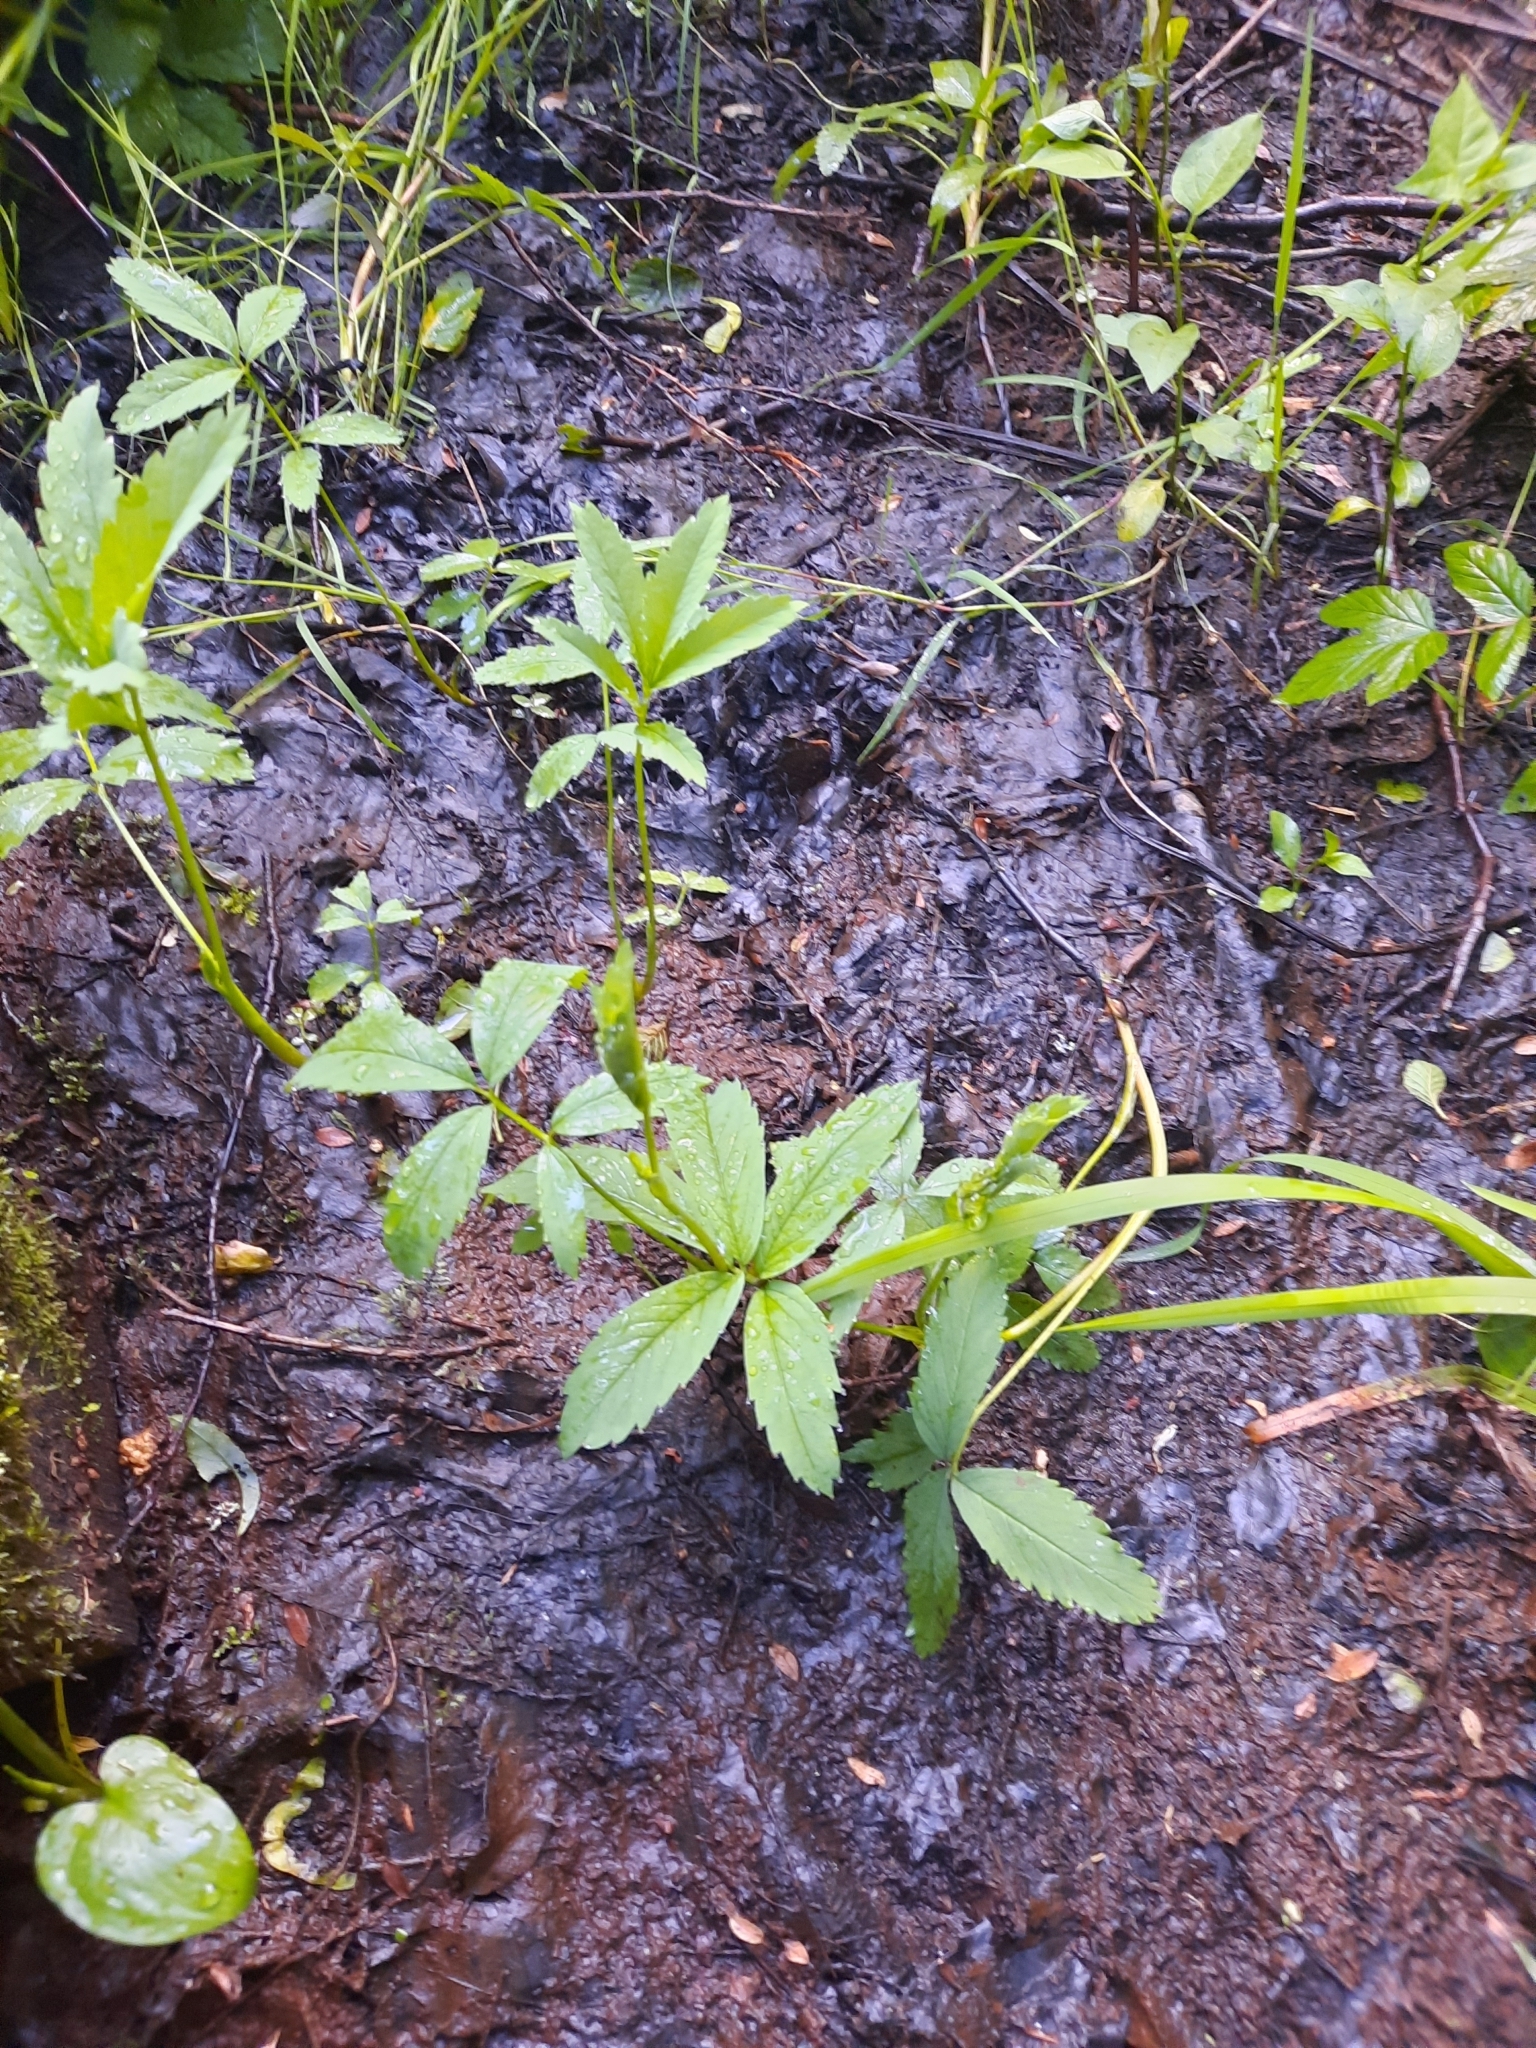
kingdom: Plantae
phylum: Tracheophyta
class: Magnoliopsida
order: Rosales
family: Rosaceae
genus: Comarum
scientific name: Comarum palustre
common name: Marsh cinquefoil
